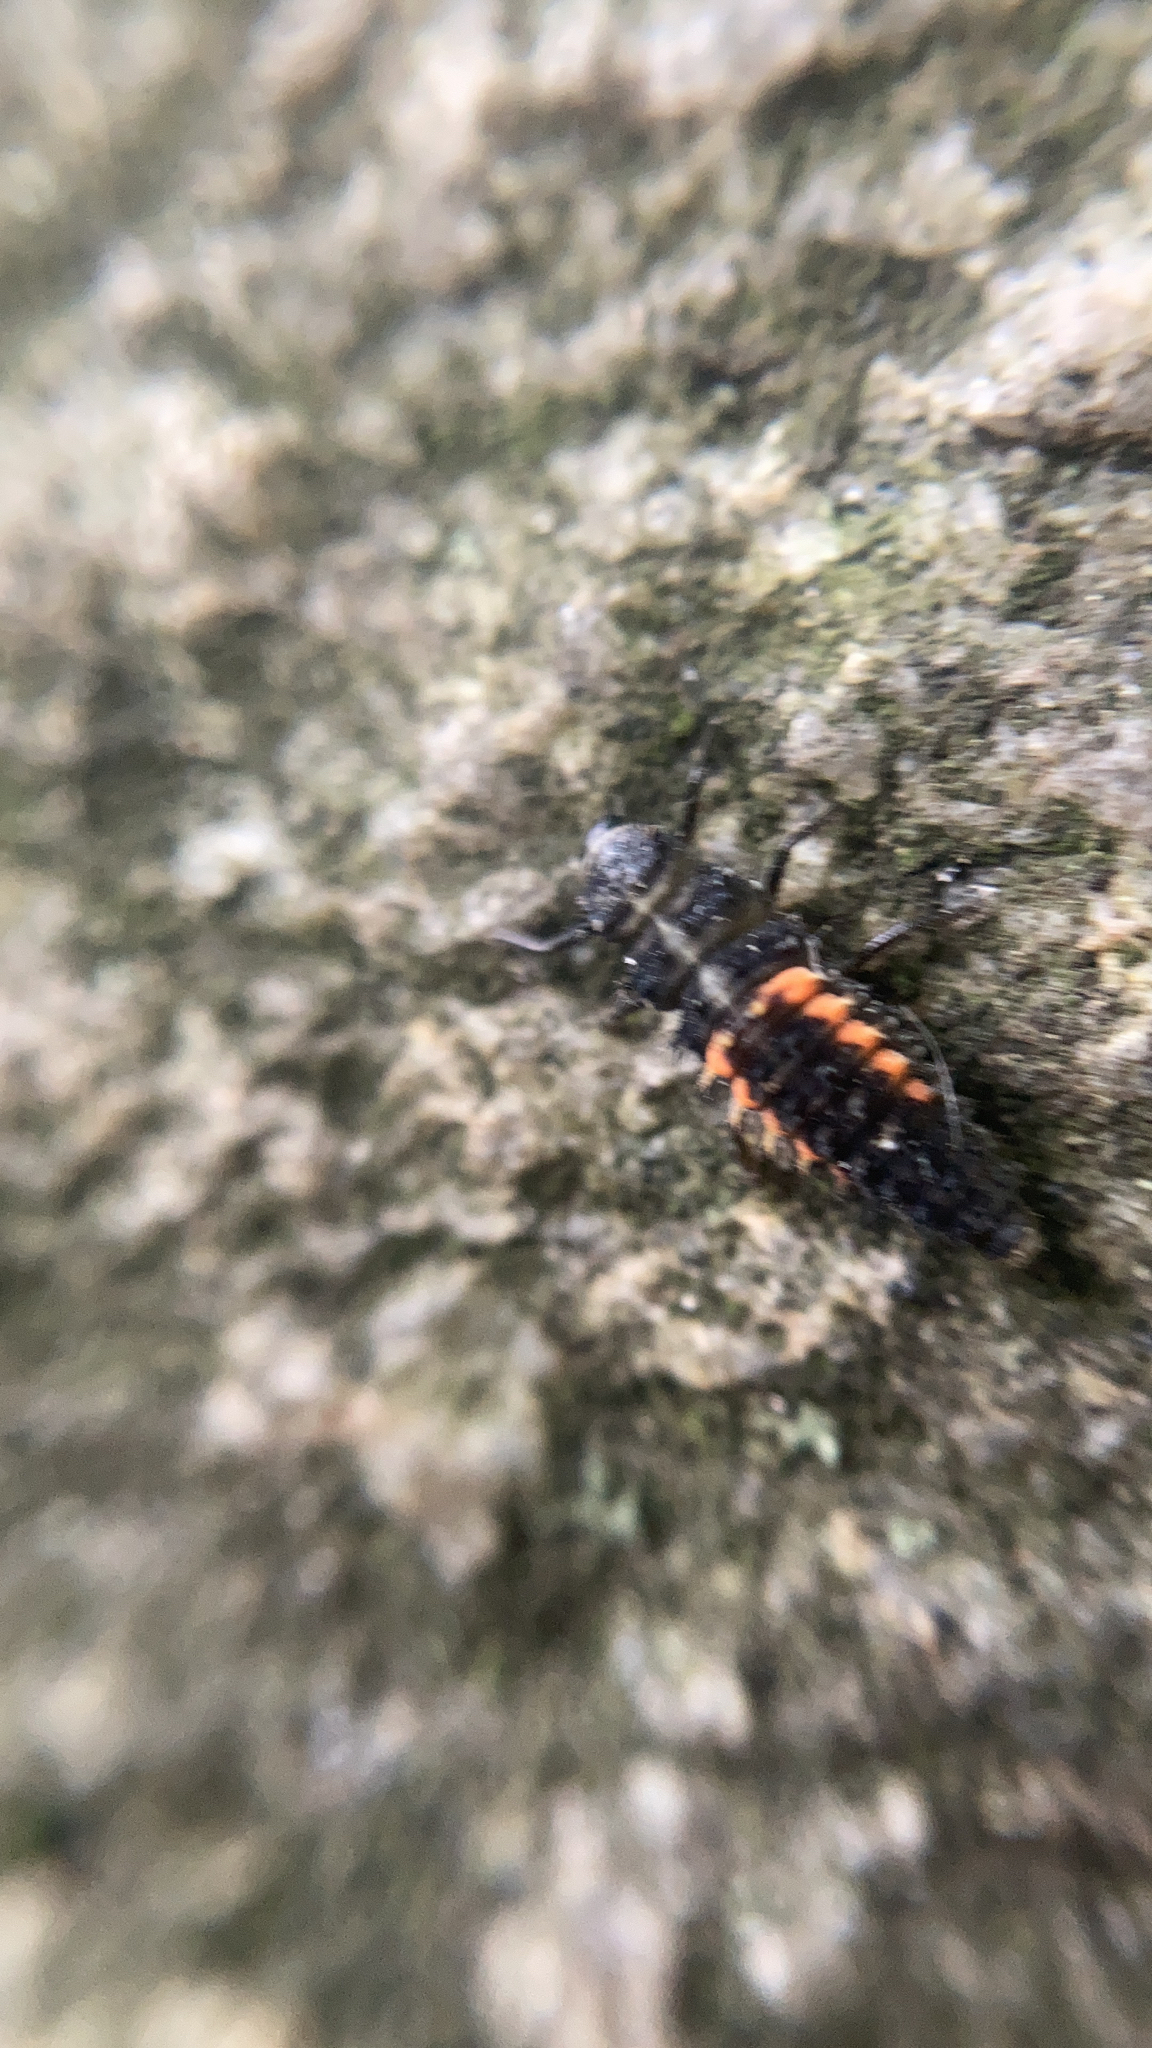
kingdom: Animalia
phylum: Arthropoda
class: Insecta
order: Coleoptera
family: Coccinellidae
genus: Harmonia
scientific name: Harmonia axyridis
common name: Harlequin ladybird
